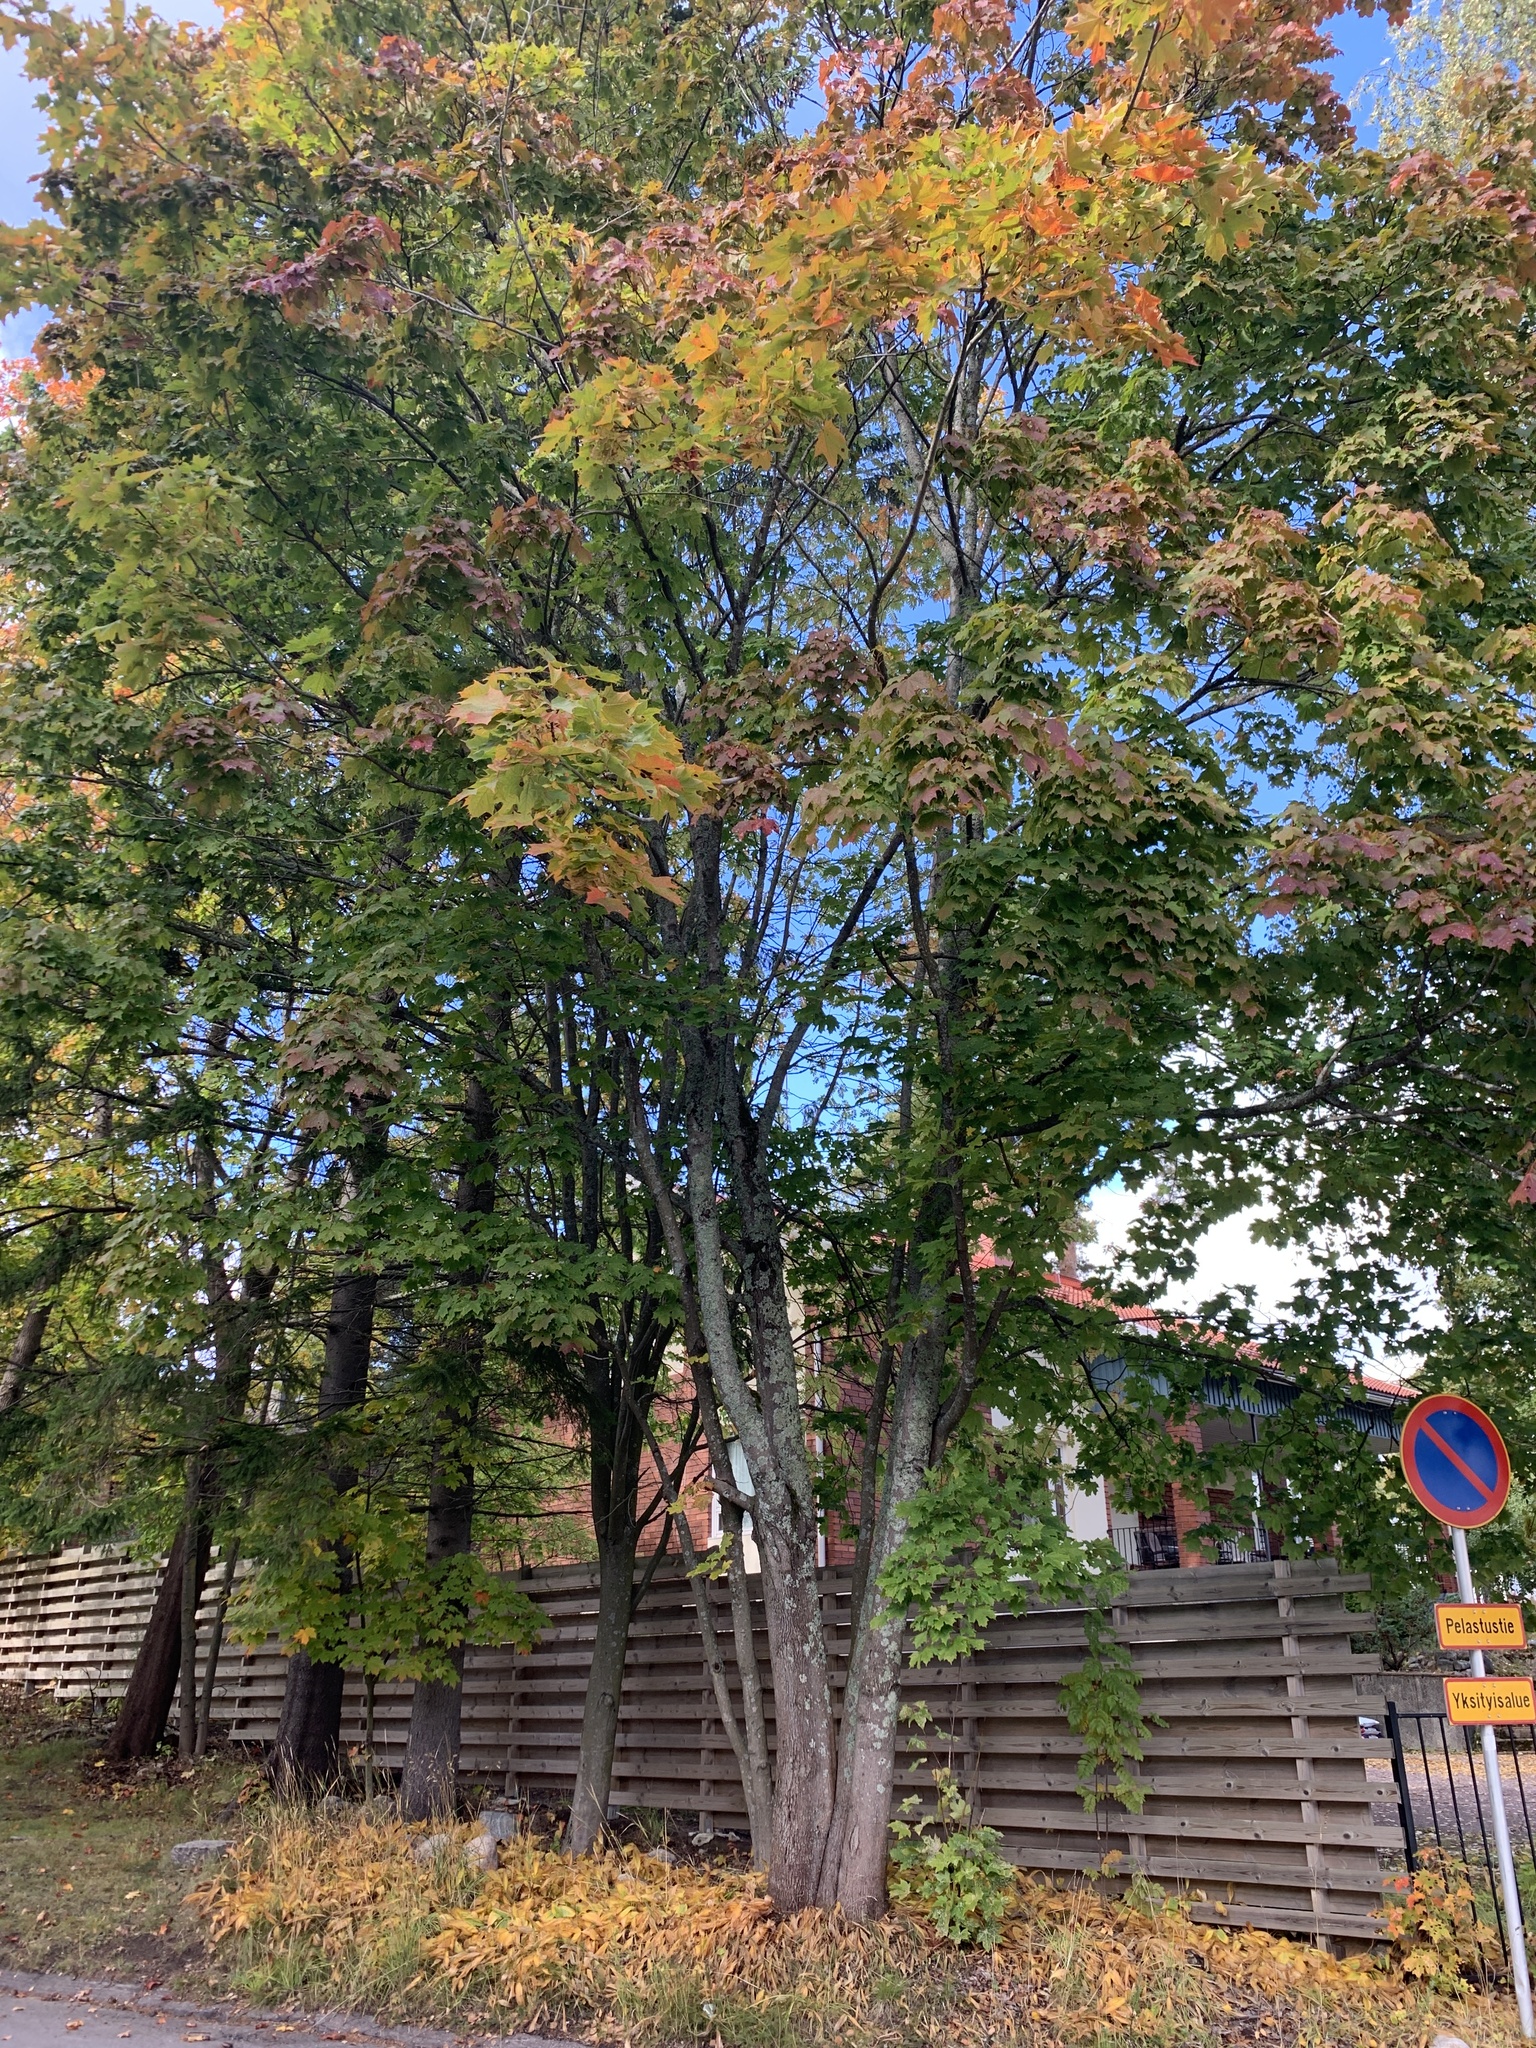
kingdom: Plantae
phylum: Tracheophyta
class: Magnoliopsida
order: Sapindales
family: Sapindaceae
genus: Acer
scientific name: Acer platanoides
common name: Norway maple
